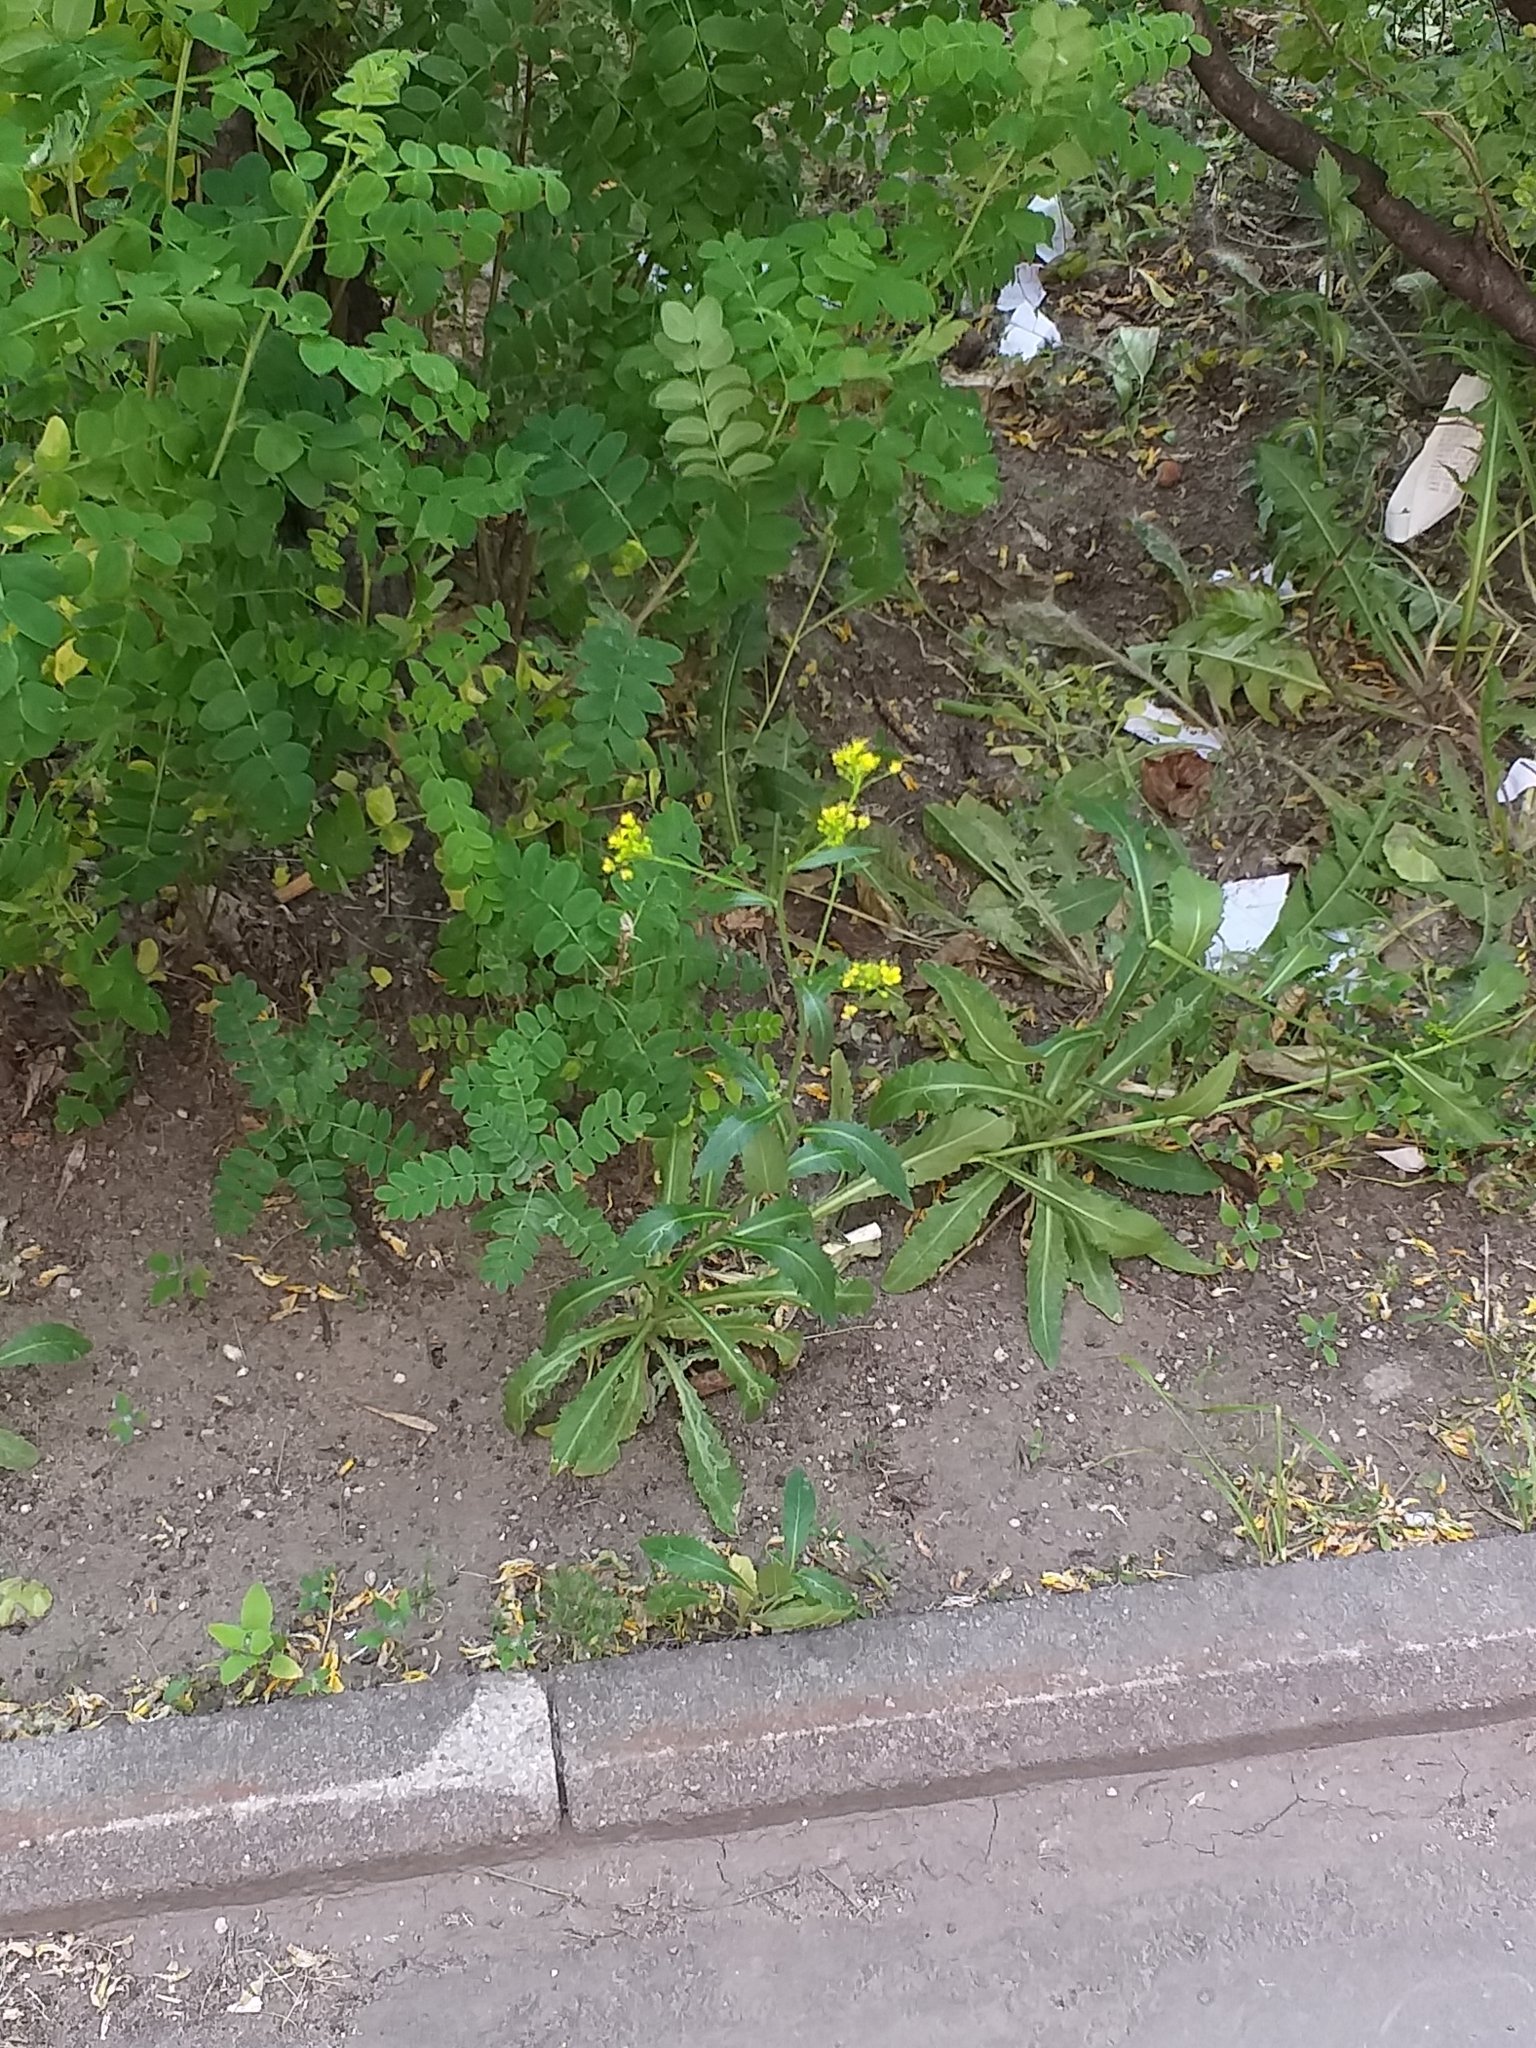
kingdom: Plantae
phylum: Tracheophyta
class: Magnoliopsida
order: Brassicales
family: Brassicaceae
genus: Rorippa
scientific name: Rorippa austriaca
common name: Austrian yellow-cress
